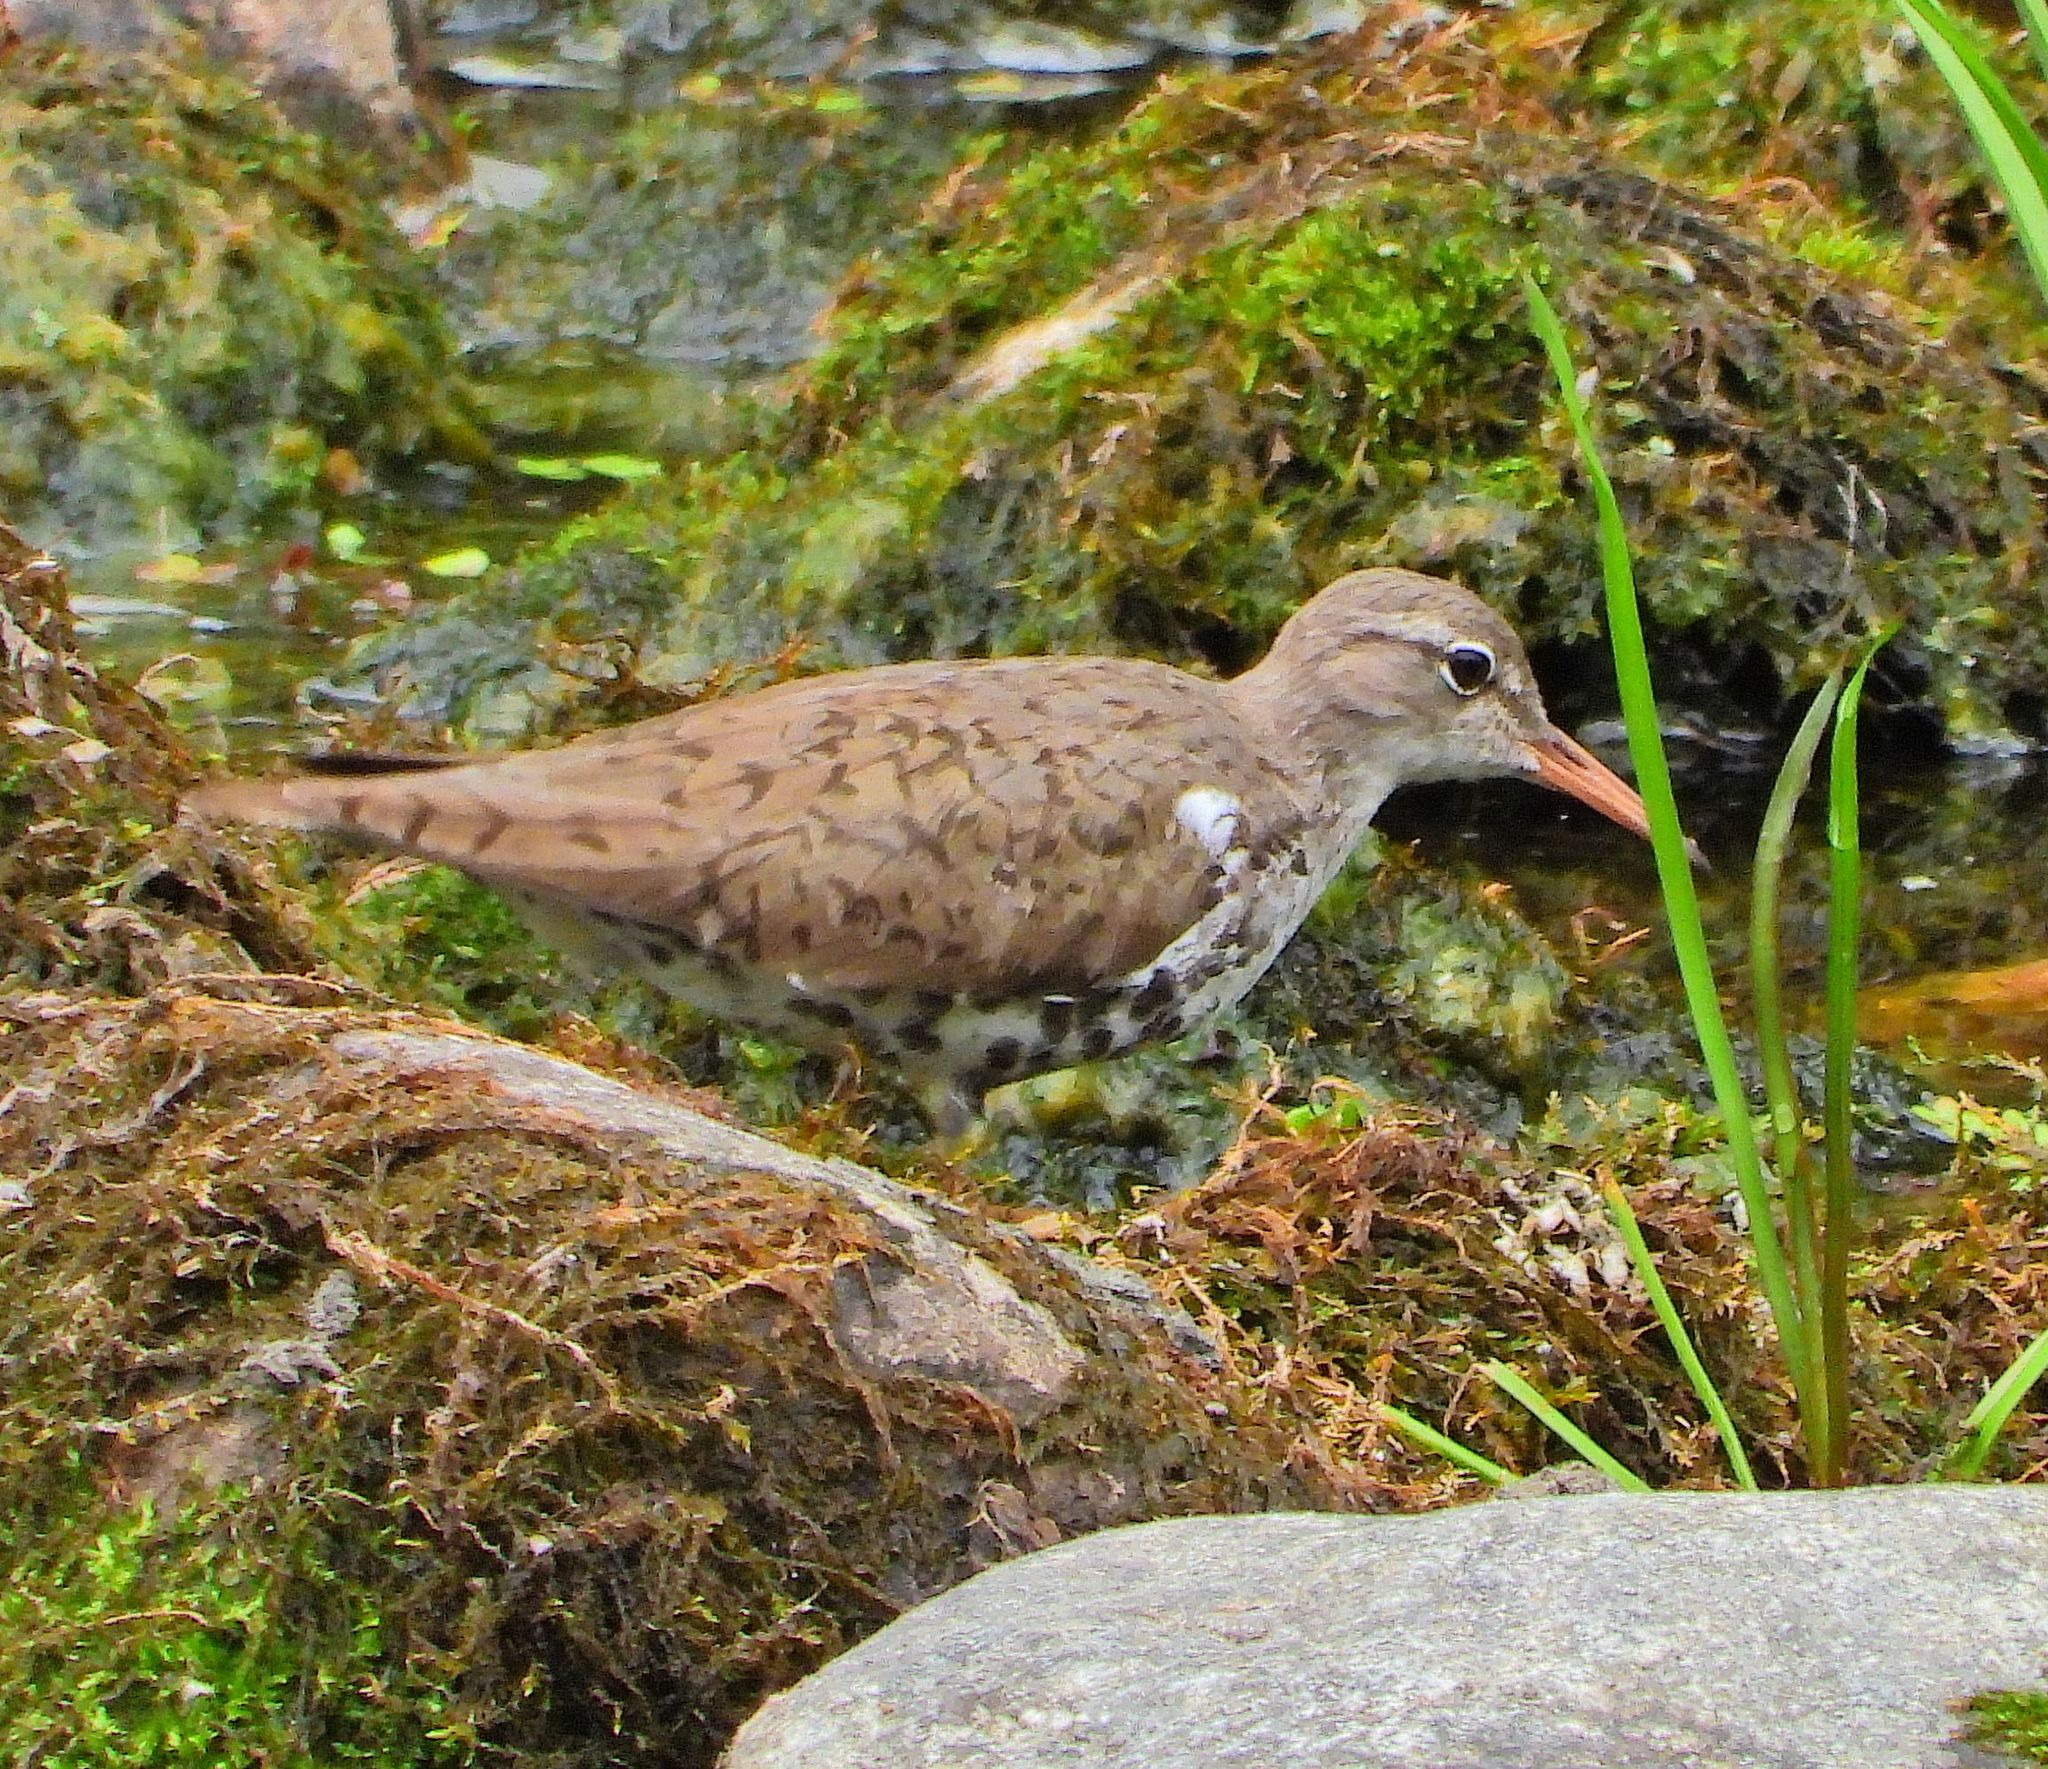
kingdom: Animalia
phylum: Chordata
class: Aves
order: Charadriiformes
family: Scolopacidae
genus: Actitis
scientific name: Actitis macularius
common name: Spotted sandpiper
